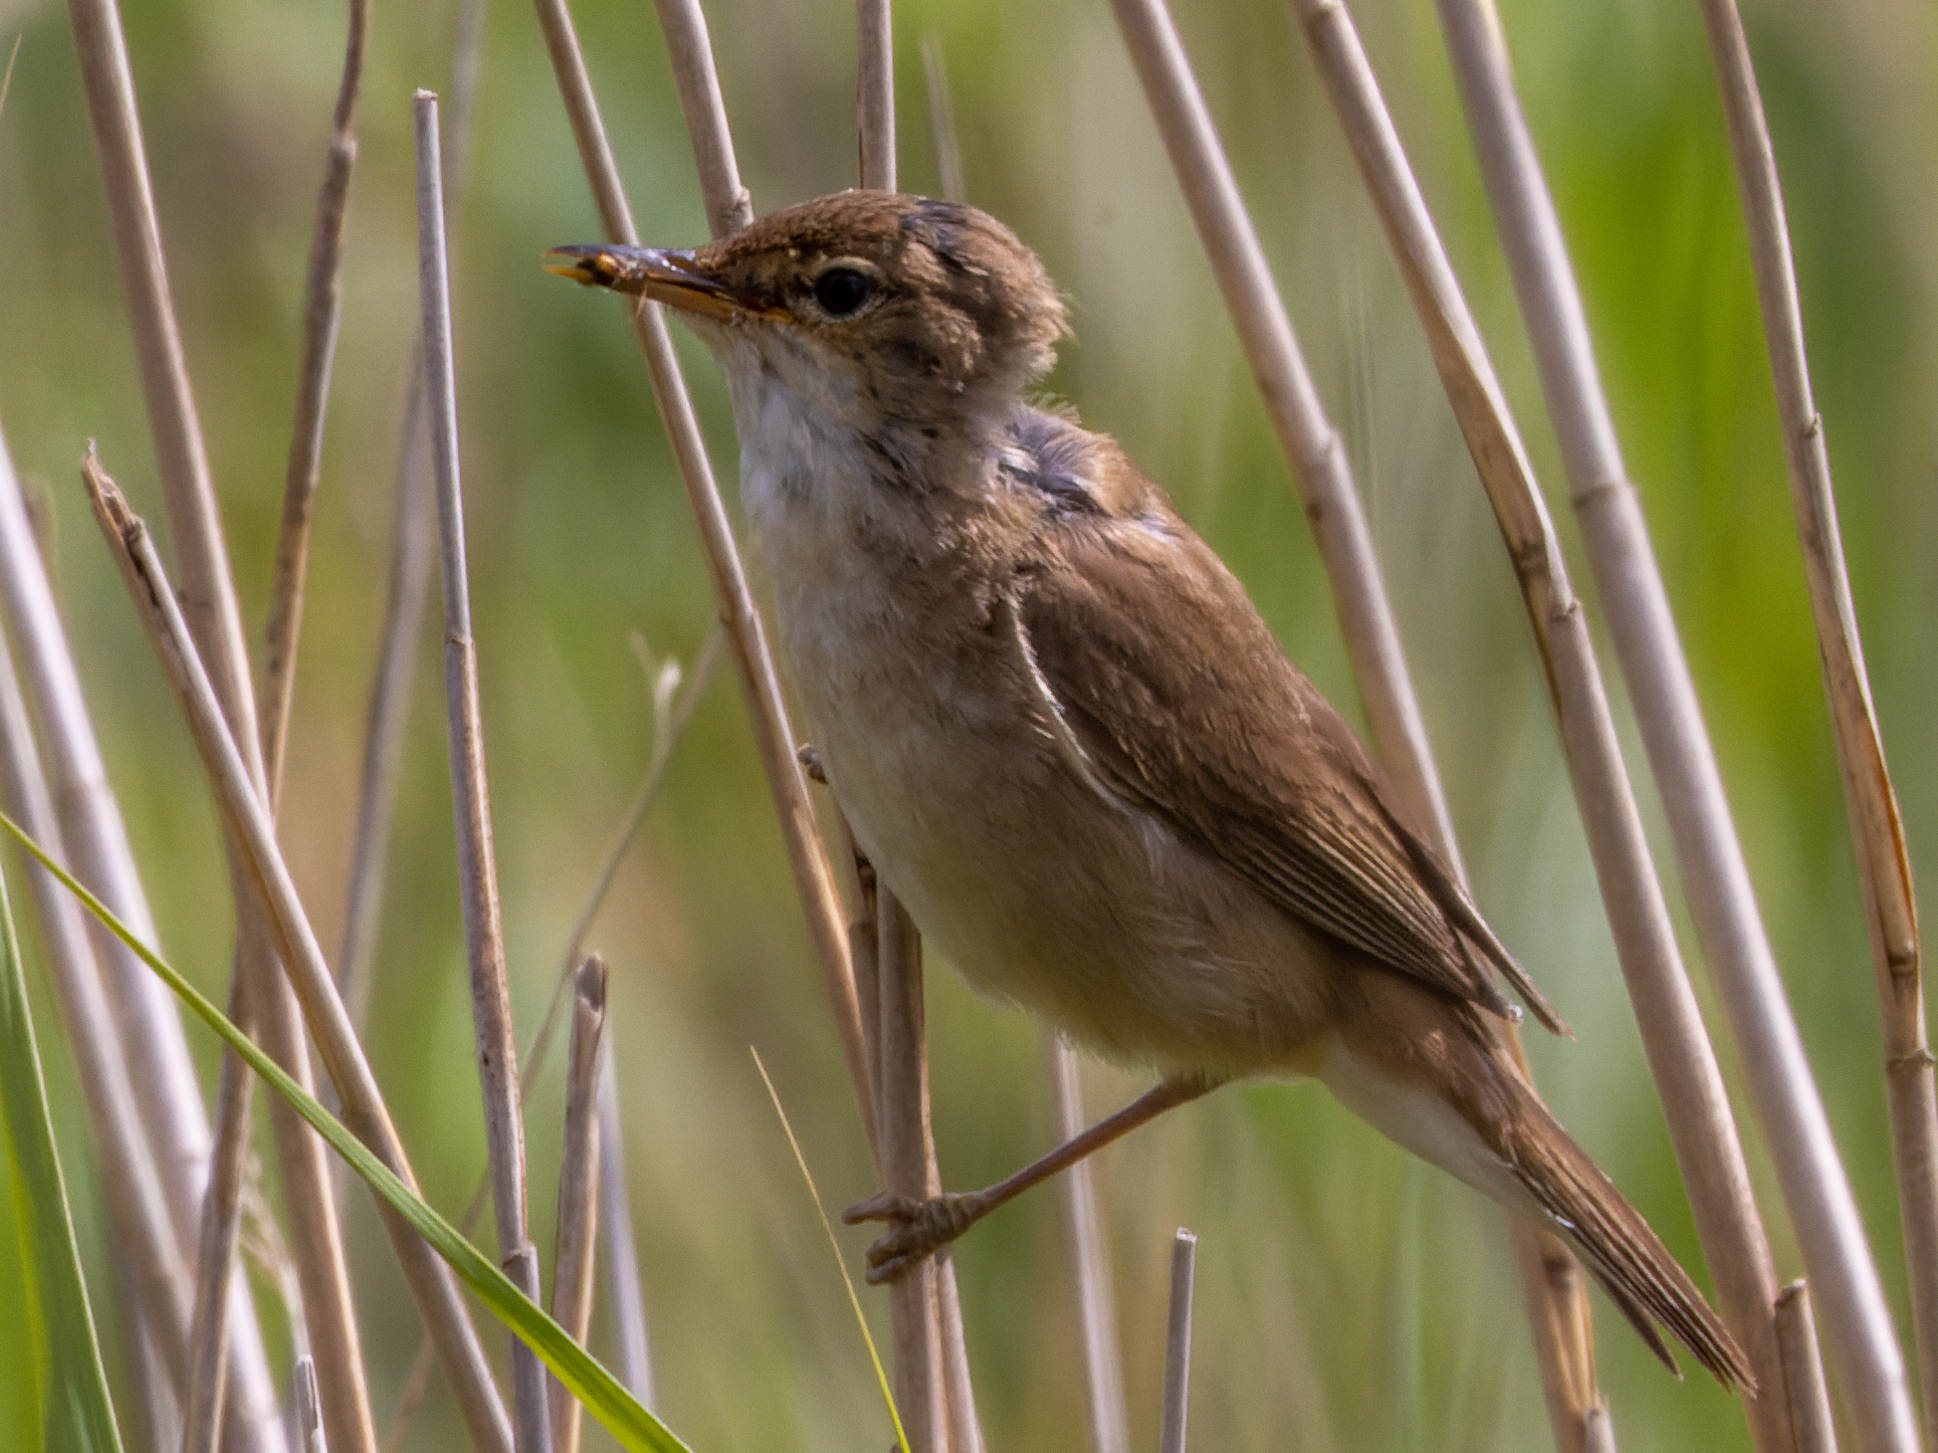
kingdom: Animalia
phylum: Chordata
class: Aves
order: Passeriformes
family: Acrocephalidae
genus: Acrocephalus
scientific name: Acrocephalus scirpaceus
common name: Eurasian reed warbler
